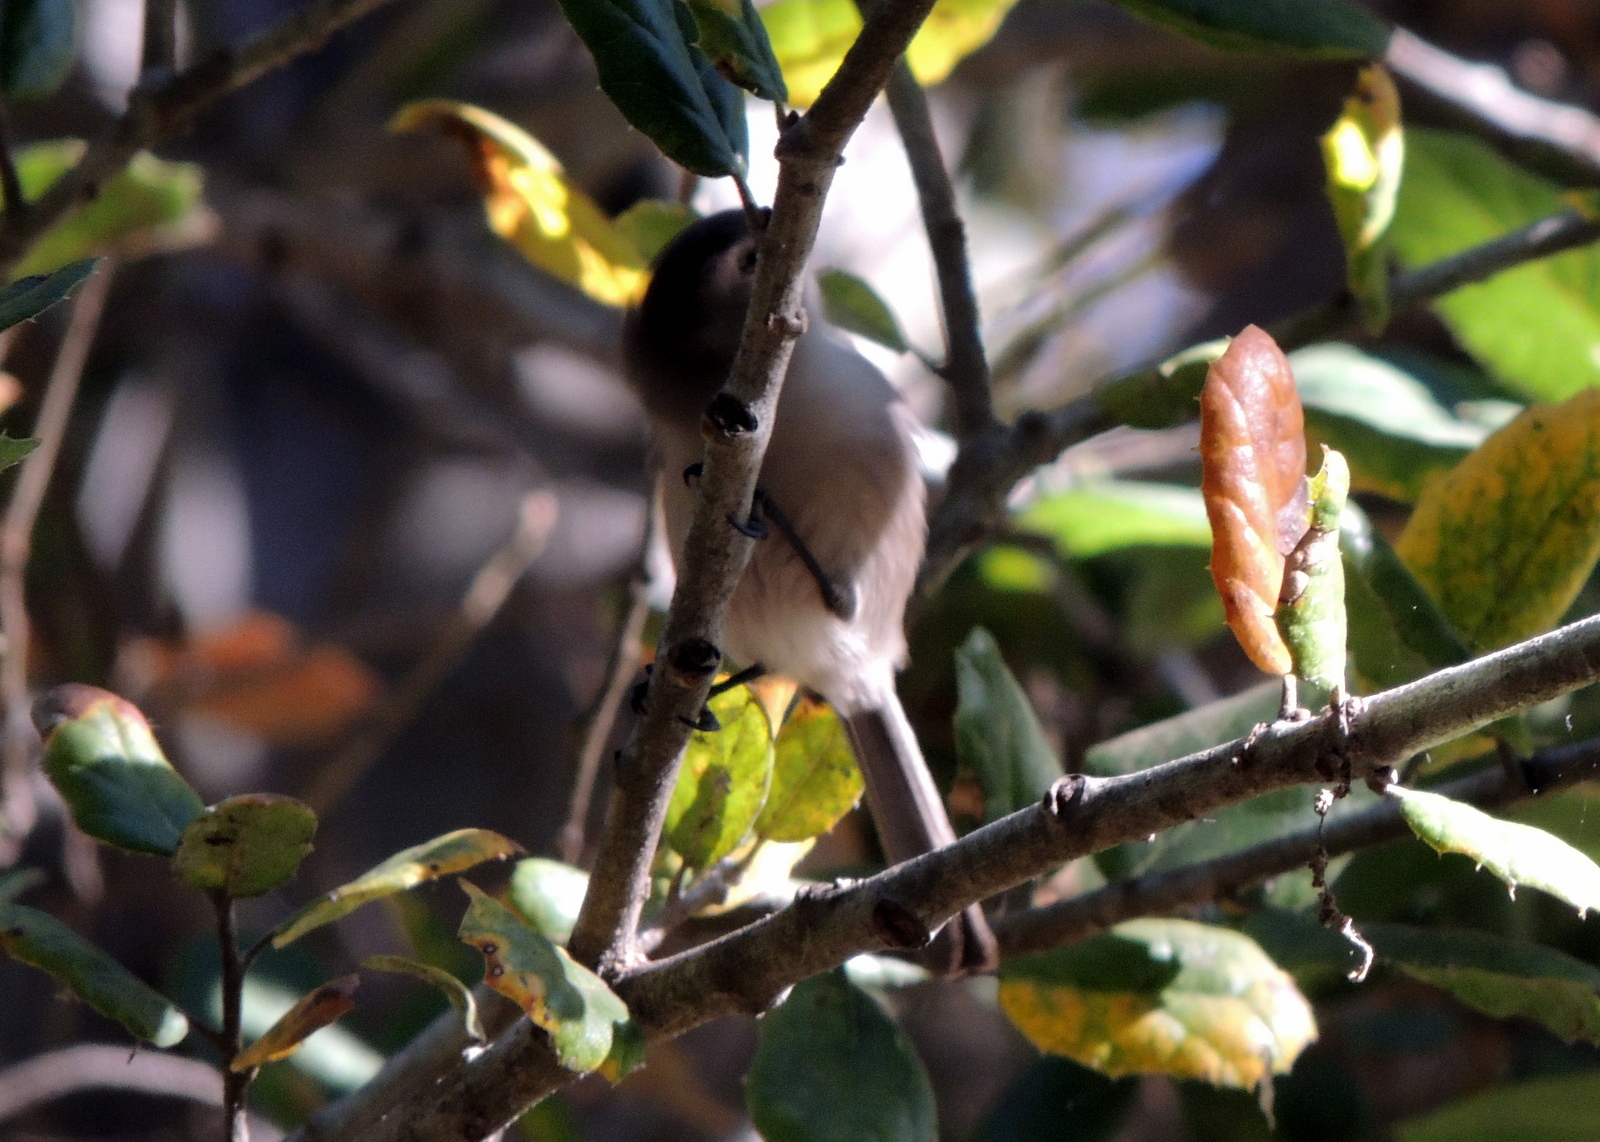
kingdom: Animalia
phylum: Chordata
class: Aves
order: Passeriformes
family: Aegithalidae
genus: Psaltriparus
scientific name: Psaltriparus minimus
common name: American bushtit
